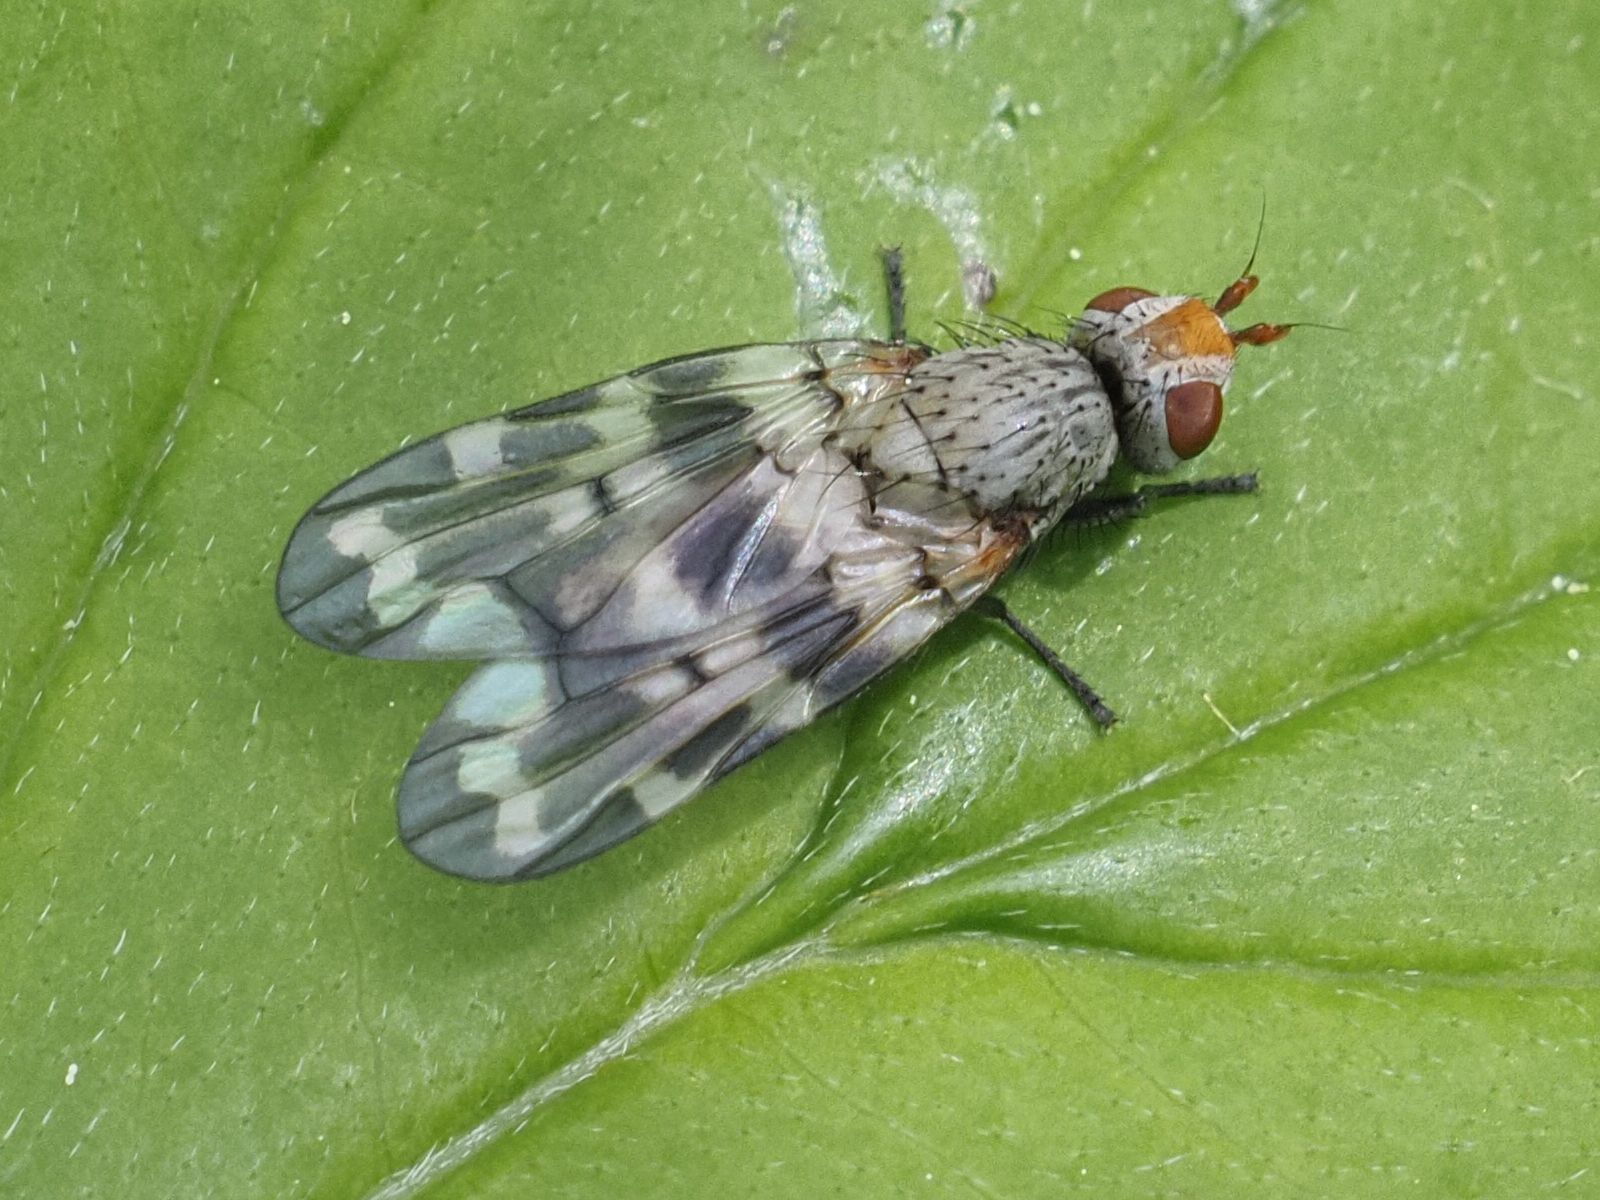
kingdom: Animalia
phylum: Arthropoda
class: Insecta
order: Diptera
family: Ulidiidae
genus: Otites
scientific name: Otites centralis
